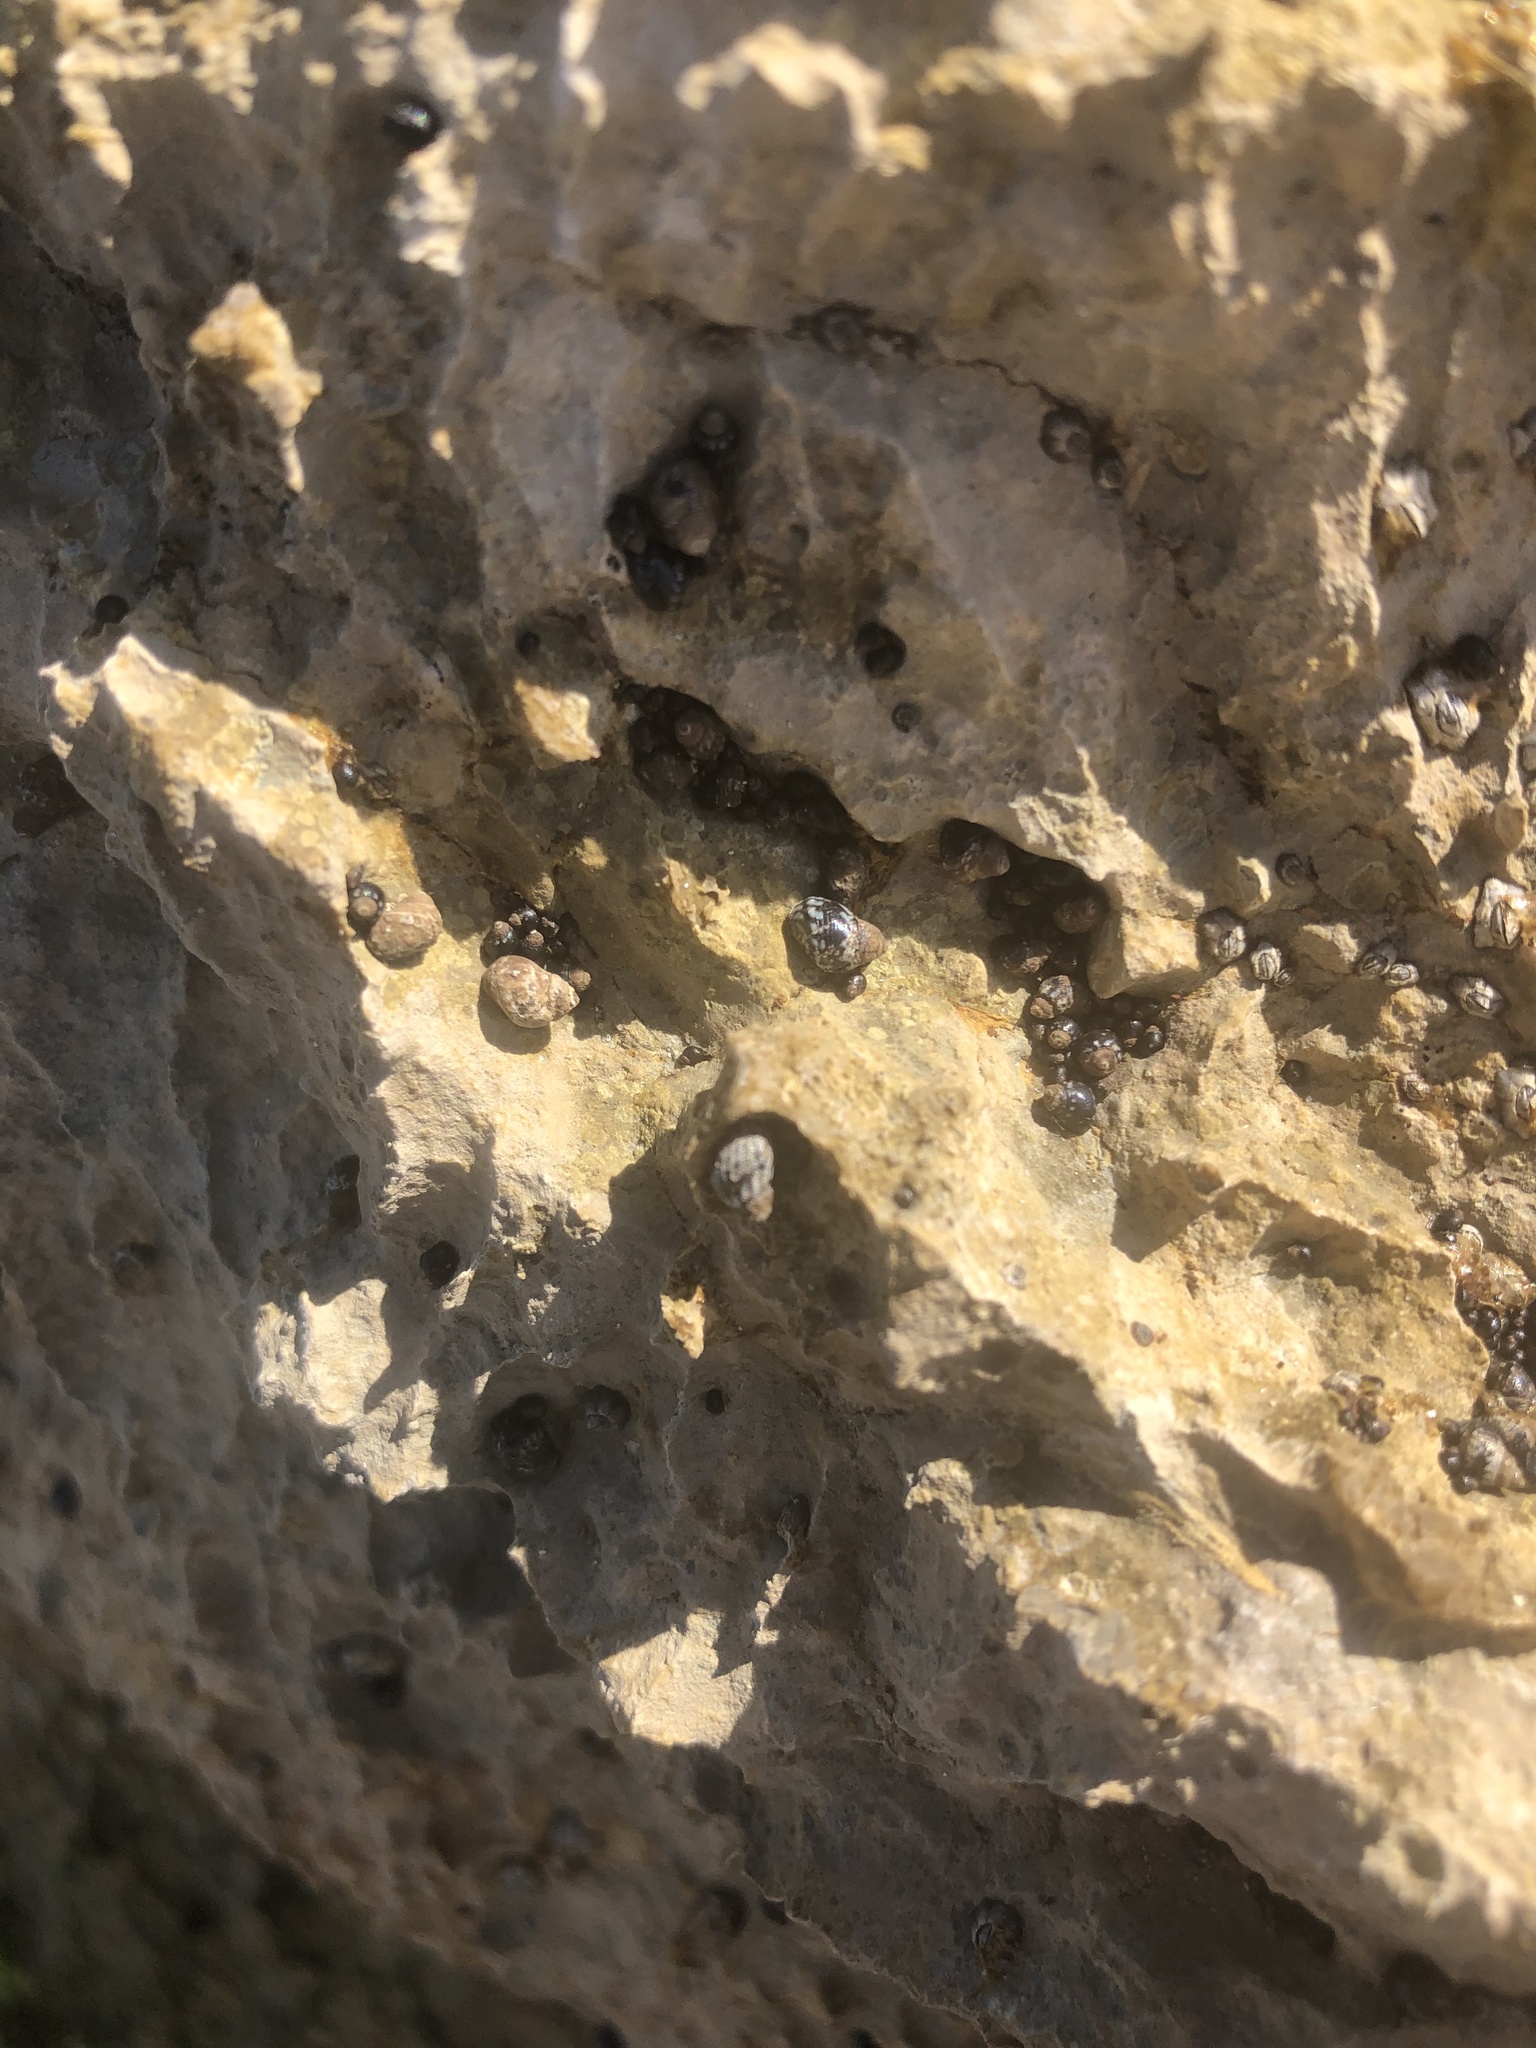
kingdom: Animalia
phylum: Mollusca
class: Gastropoda
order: Littorinimorpha
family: Littorinidae
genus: Echinolittorina
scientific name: Echinolittorina placida
